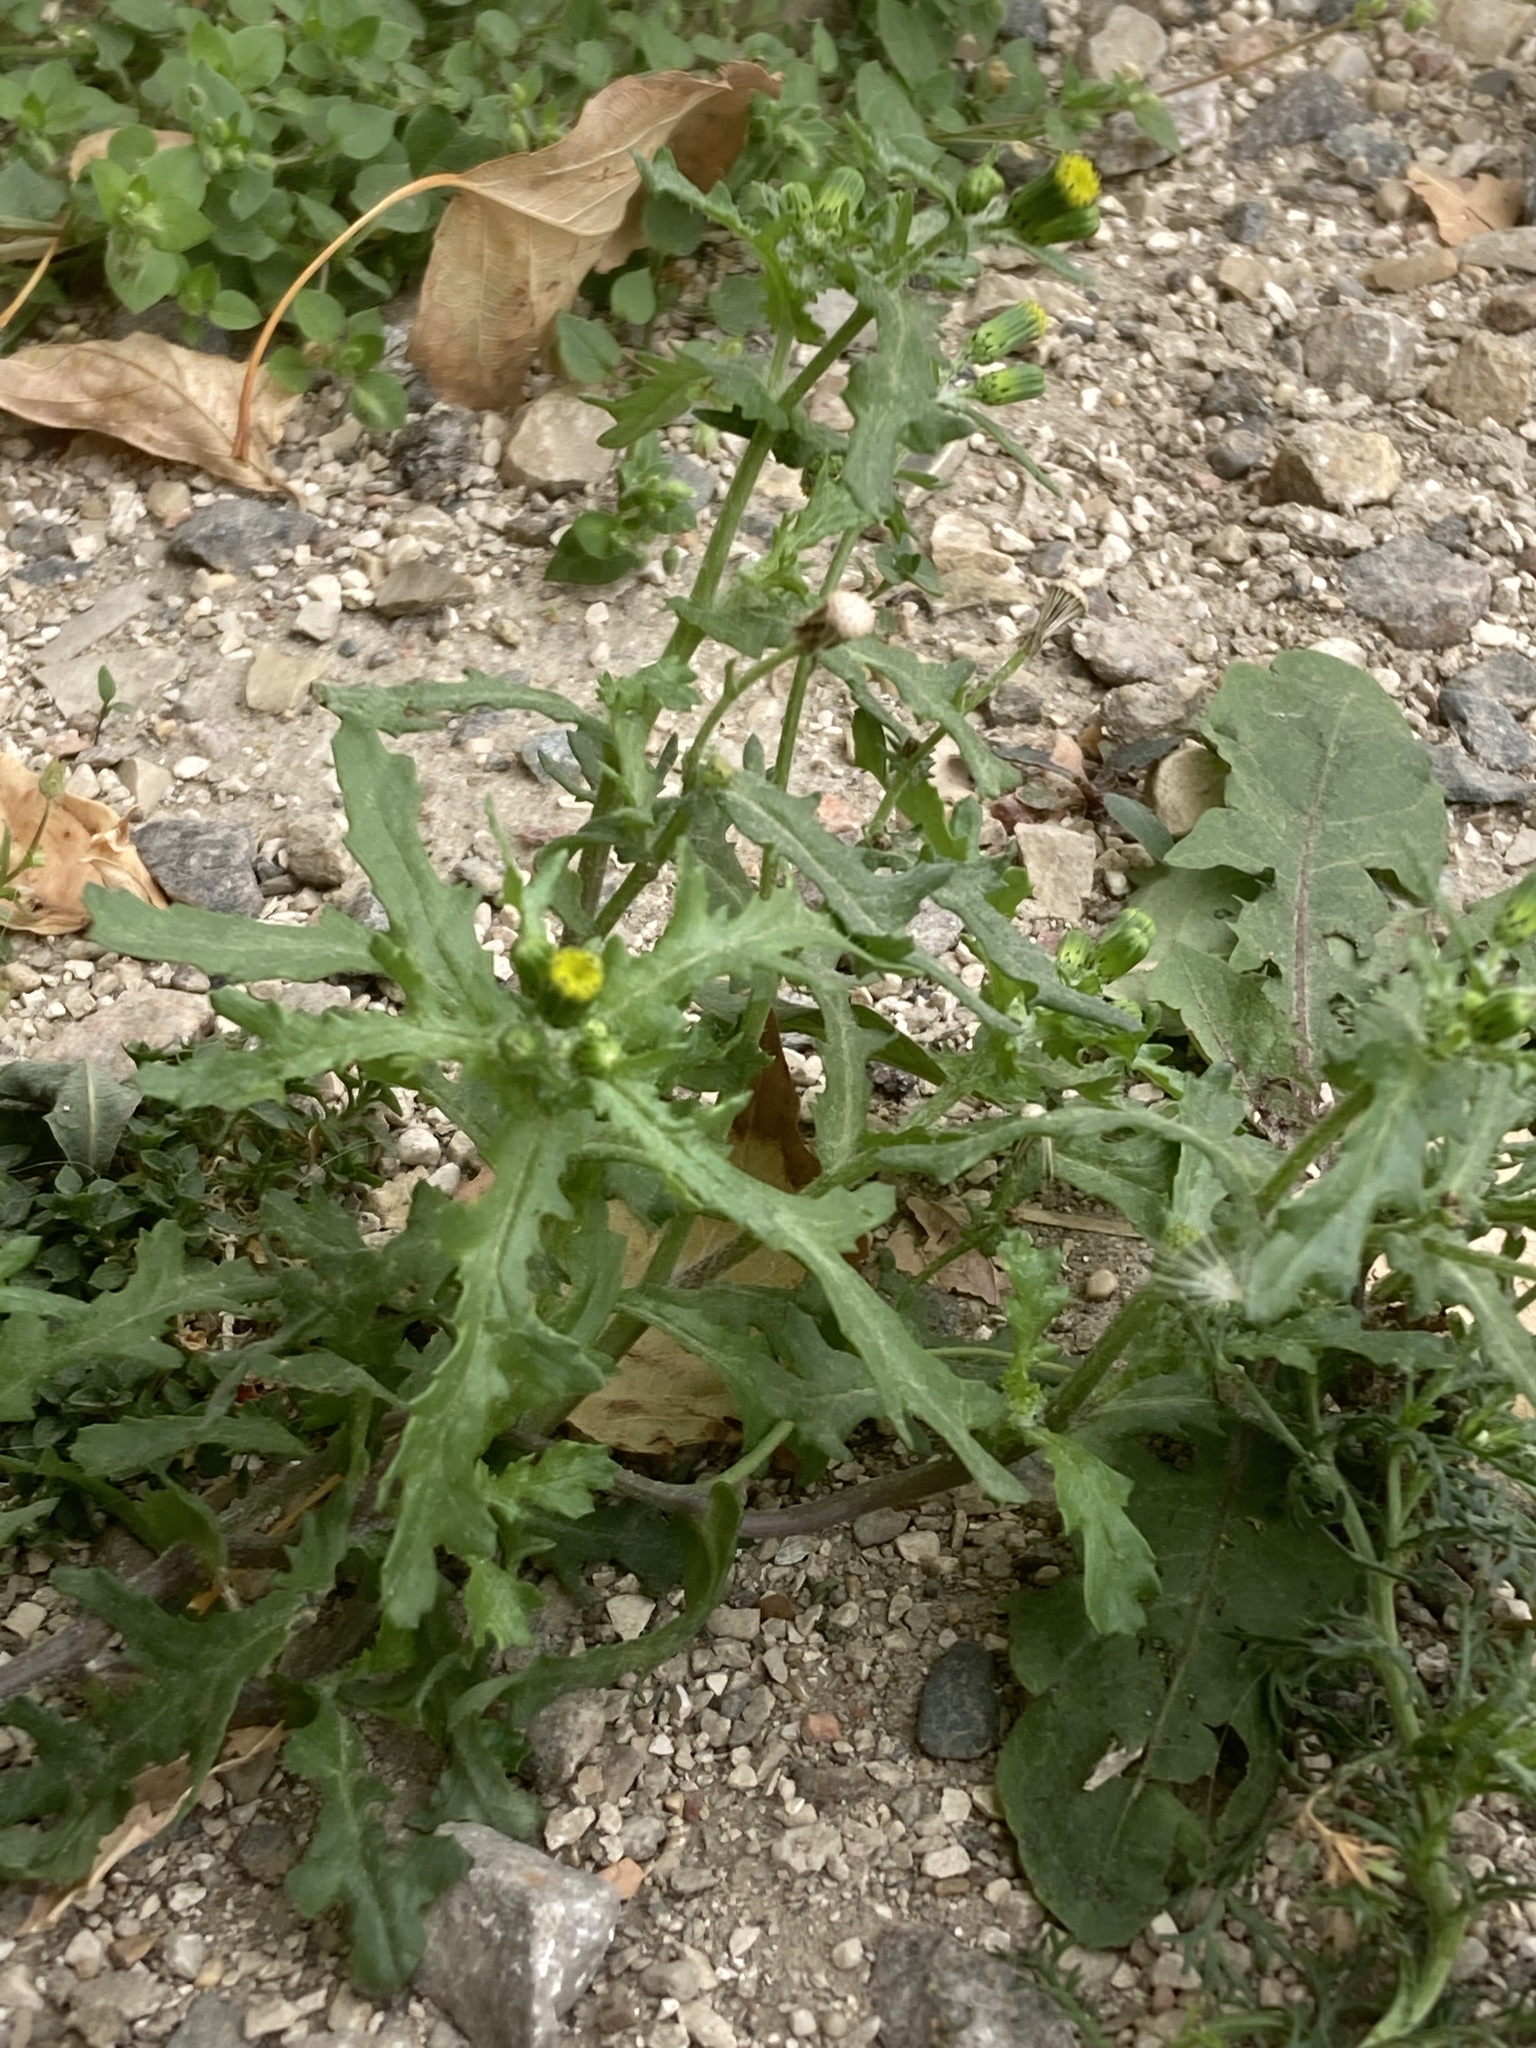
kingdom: Plantae
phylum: Tracheophyta
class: Magnoliopsida
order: Asterales
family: Asteraceae
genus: Senecio
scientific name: Senecio vulgaris
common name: Old-man-in-the-spring
